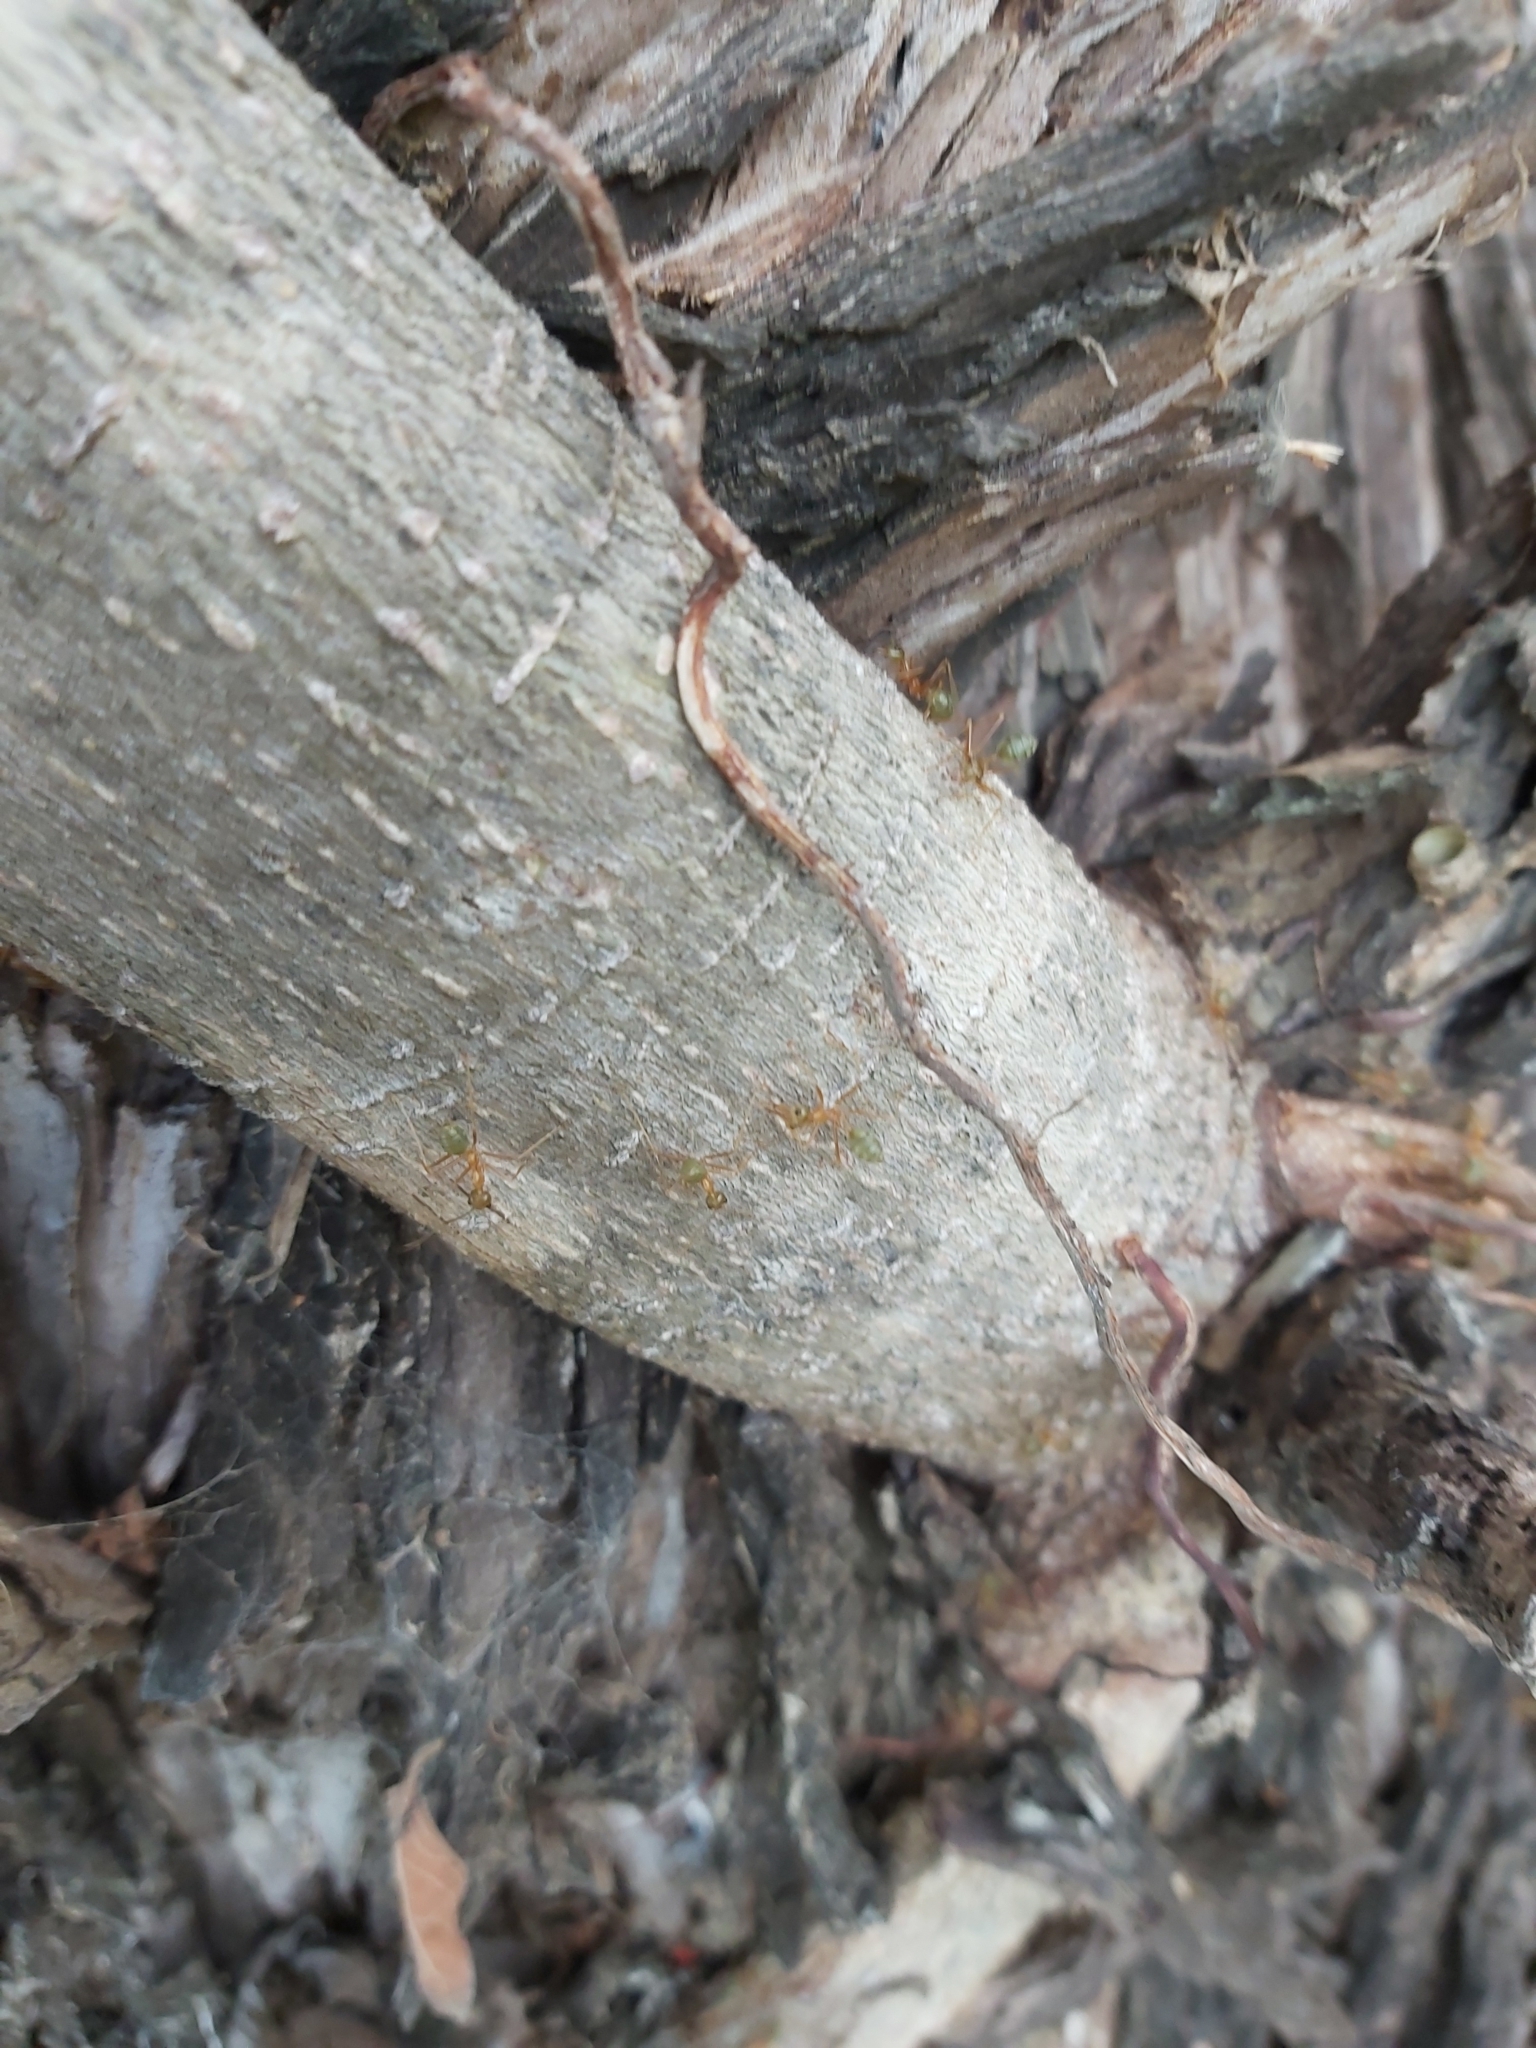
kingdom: Animalia
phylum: Arthropoda
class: Insecta
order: Hymenoptera
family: Formicidae
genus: Oecophylla
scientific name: Oecophylla smaragdina
